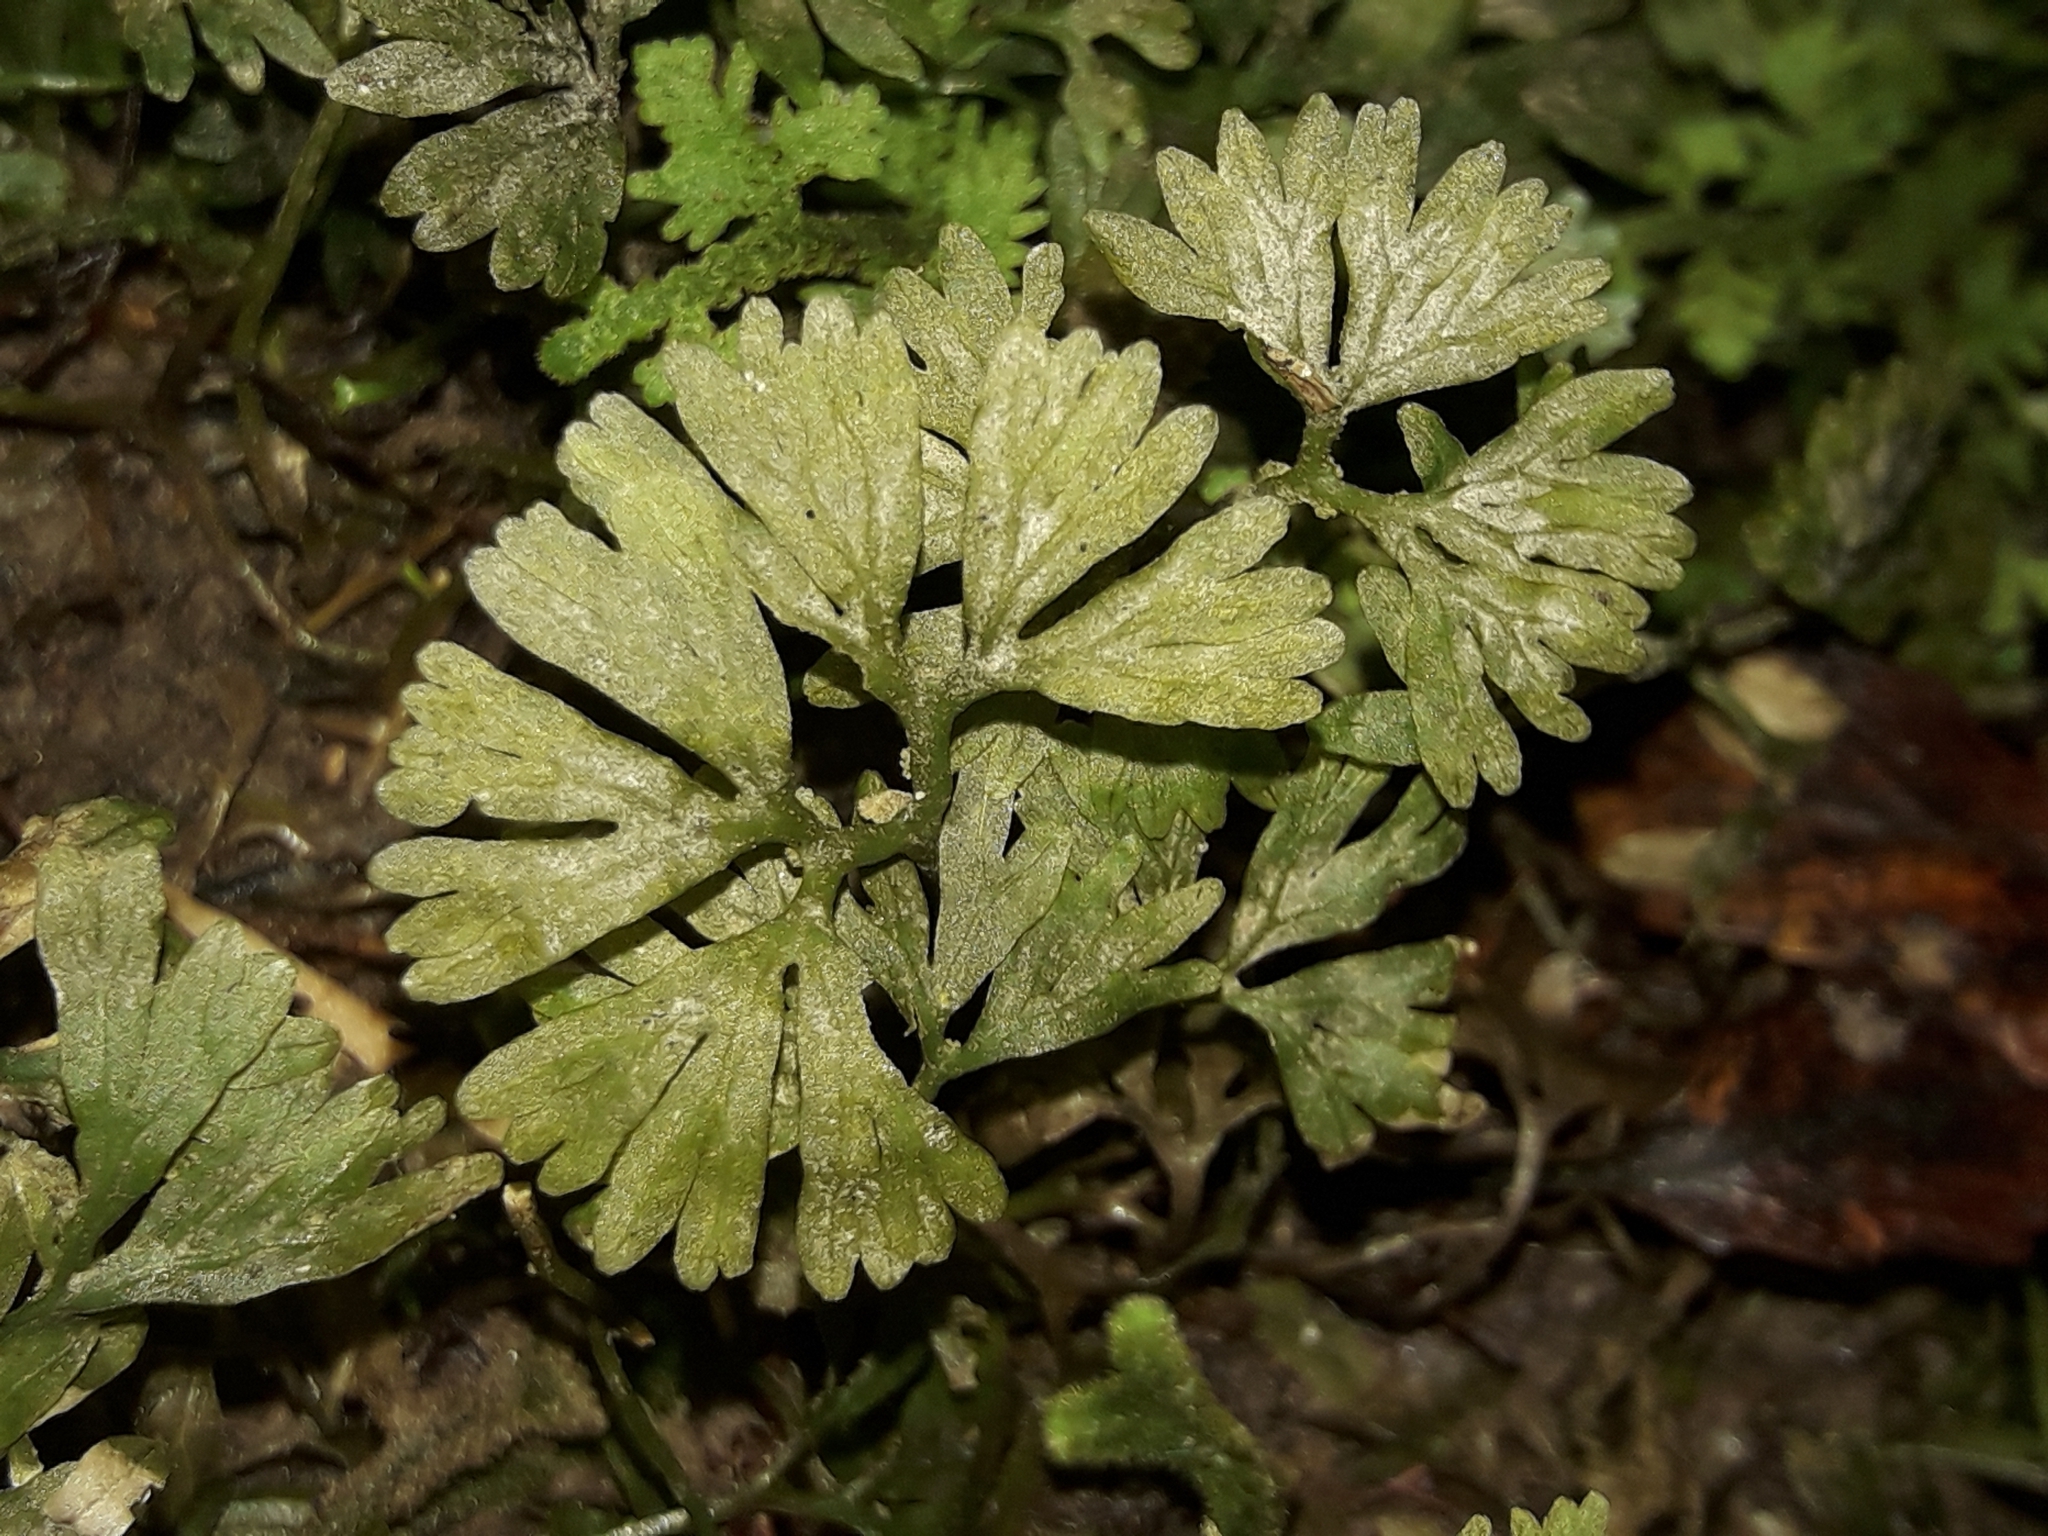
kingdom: Plantae
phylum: Marchantiophyta
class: Jungermanniopsida
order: Pallaviciniales
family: Hymenophytaceae
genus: Hymenophyton
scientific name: Hymenophyton flabellatum
